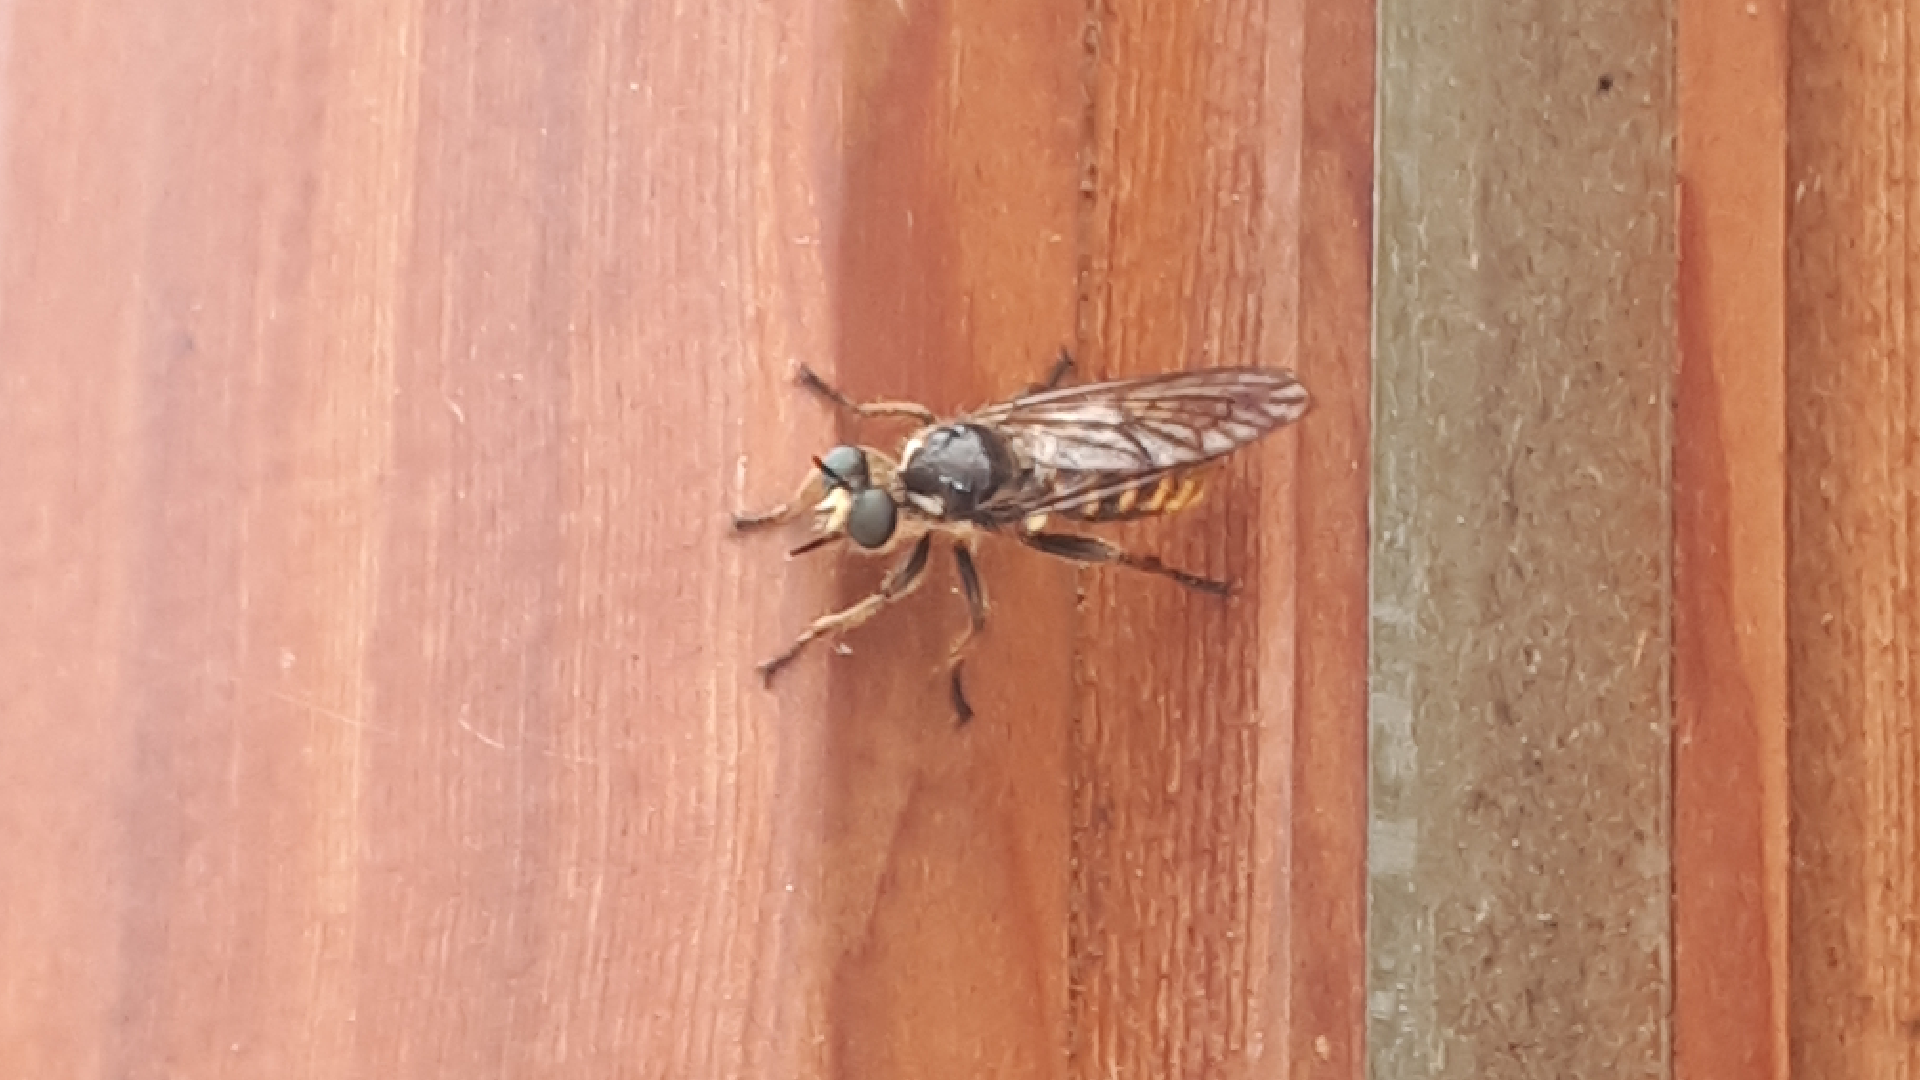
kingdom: Animalia
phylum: Arthropoda
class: Insecta
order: Diptera
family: Asilidae
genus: Lamyra
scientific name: Lamyra fimbriata
